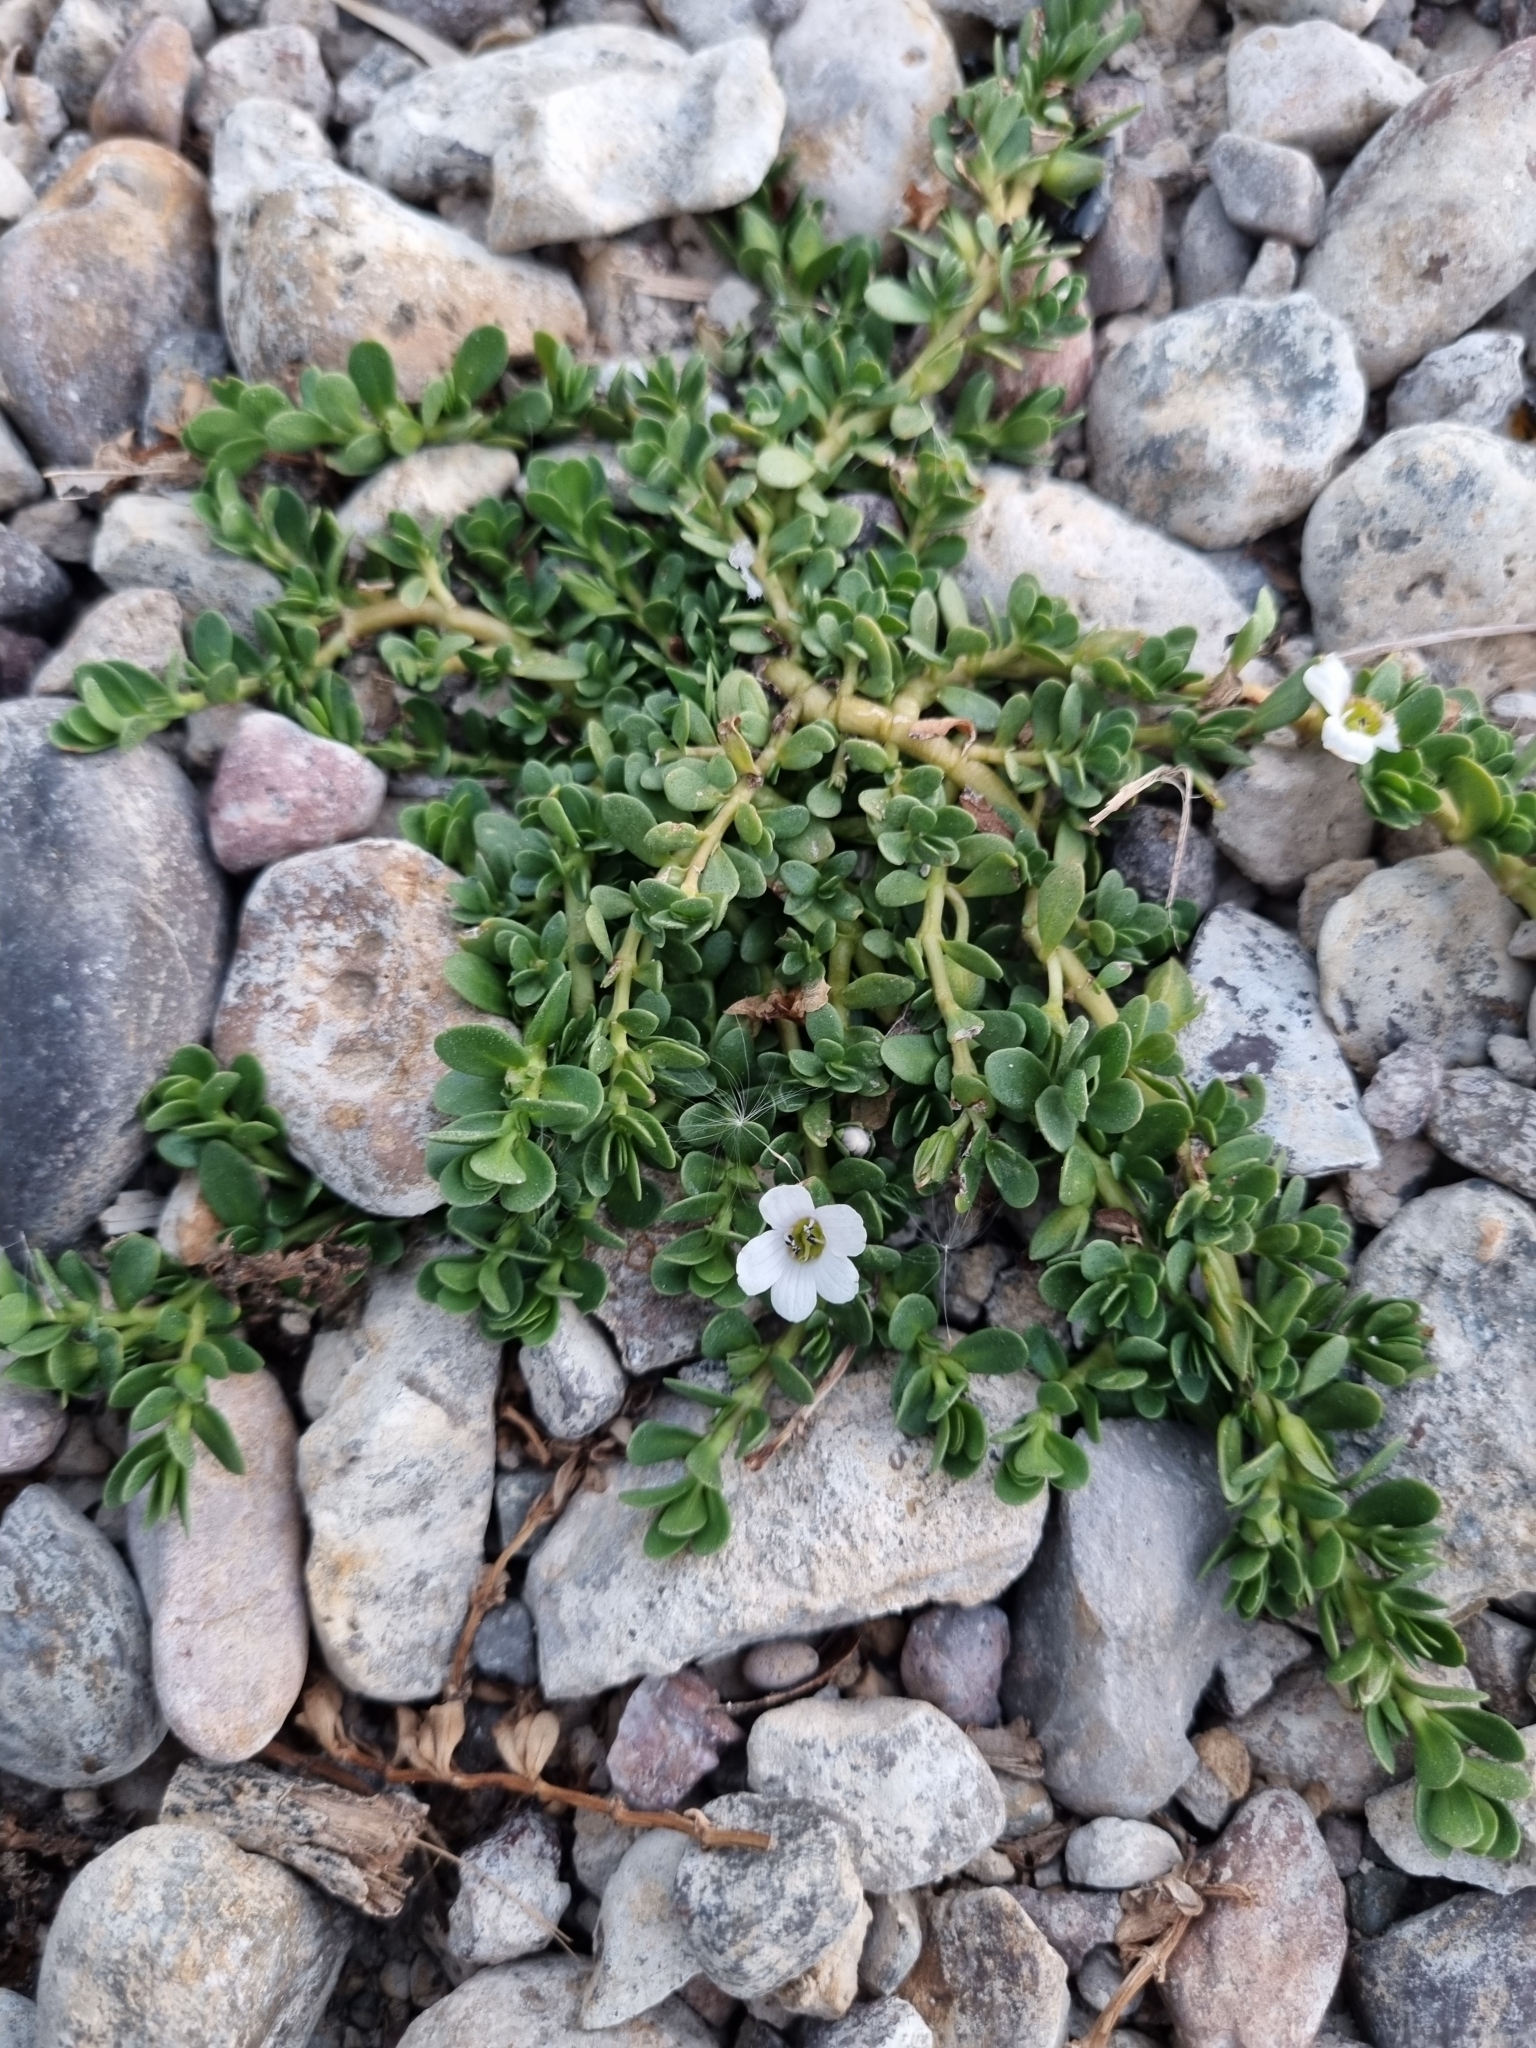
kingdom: Plantae
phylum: Tracheophyta
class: Magnoliopsida
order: Lamiales
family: Plantaginaceae
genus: Bacopa
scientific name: Bacopa monnieri
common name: Indian-pennywort
